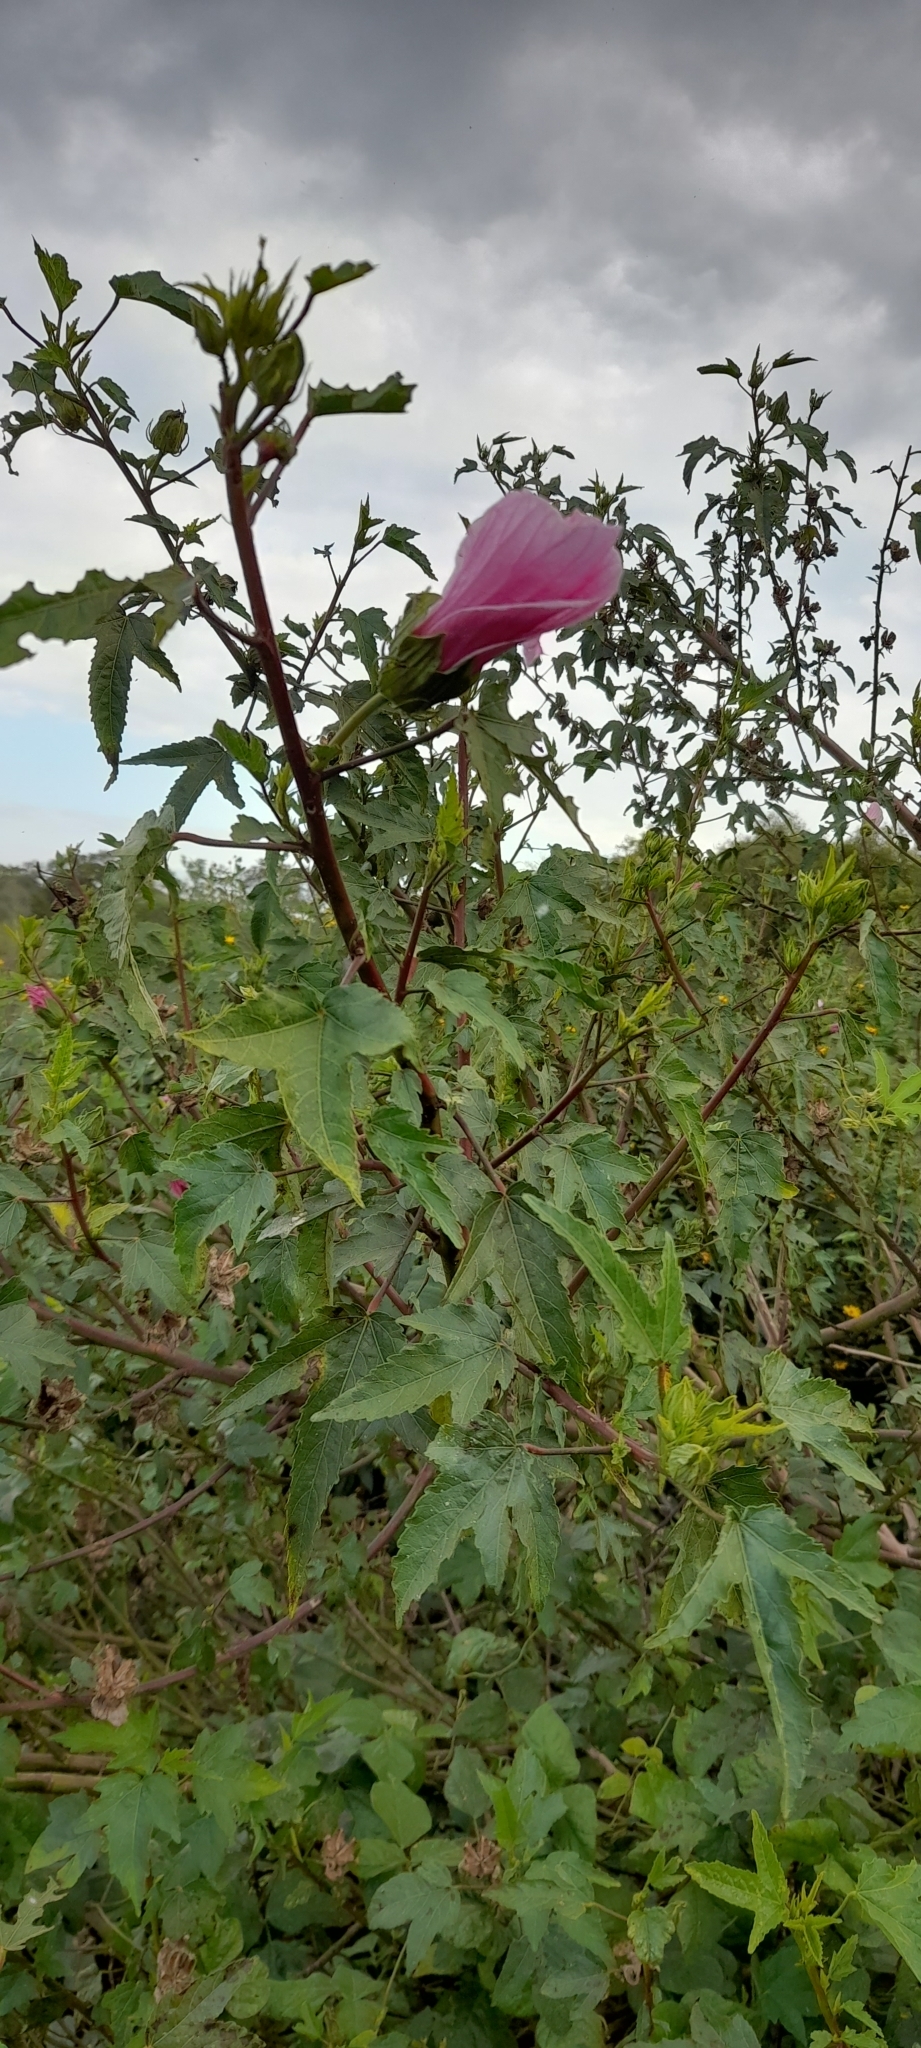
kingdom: Plantae
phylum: Tracheophyta
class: Magnoliopsida
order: Malvales
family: Malvaceae
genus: Hibiscus
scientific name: Hibiscus striatus
